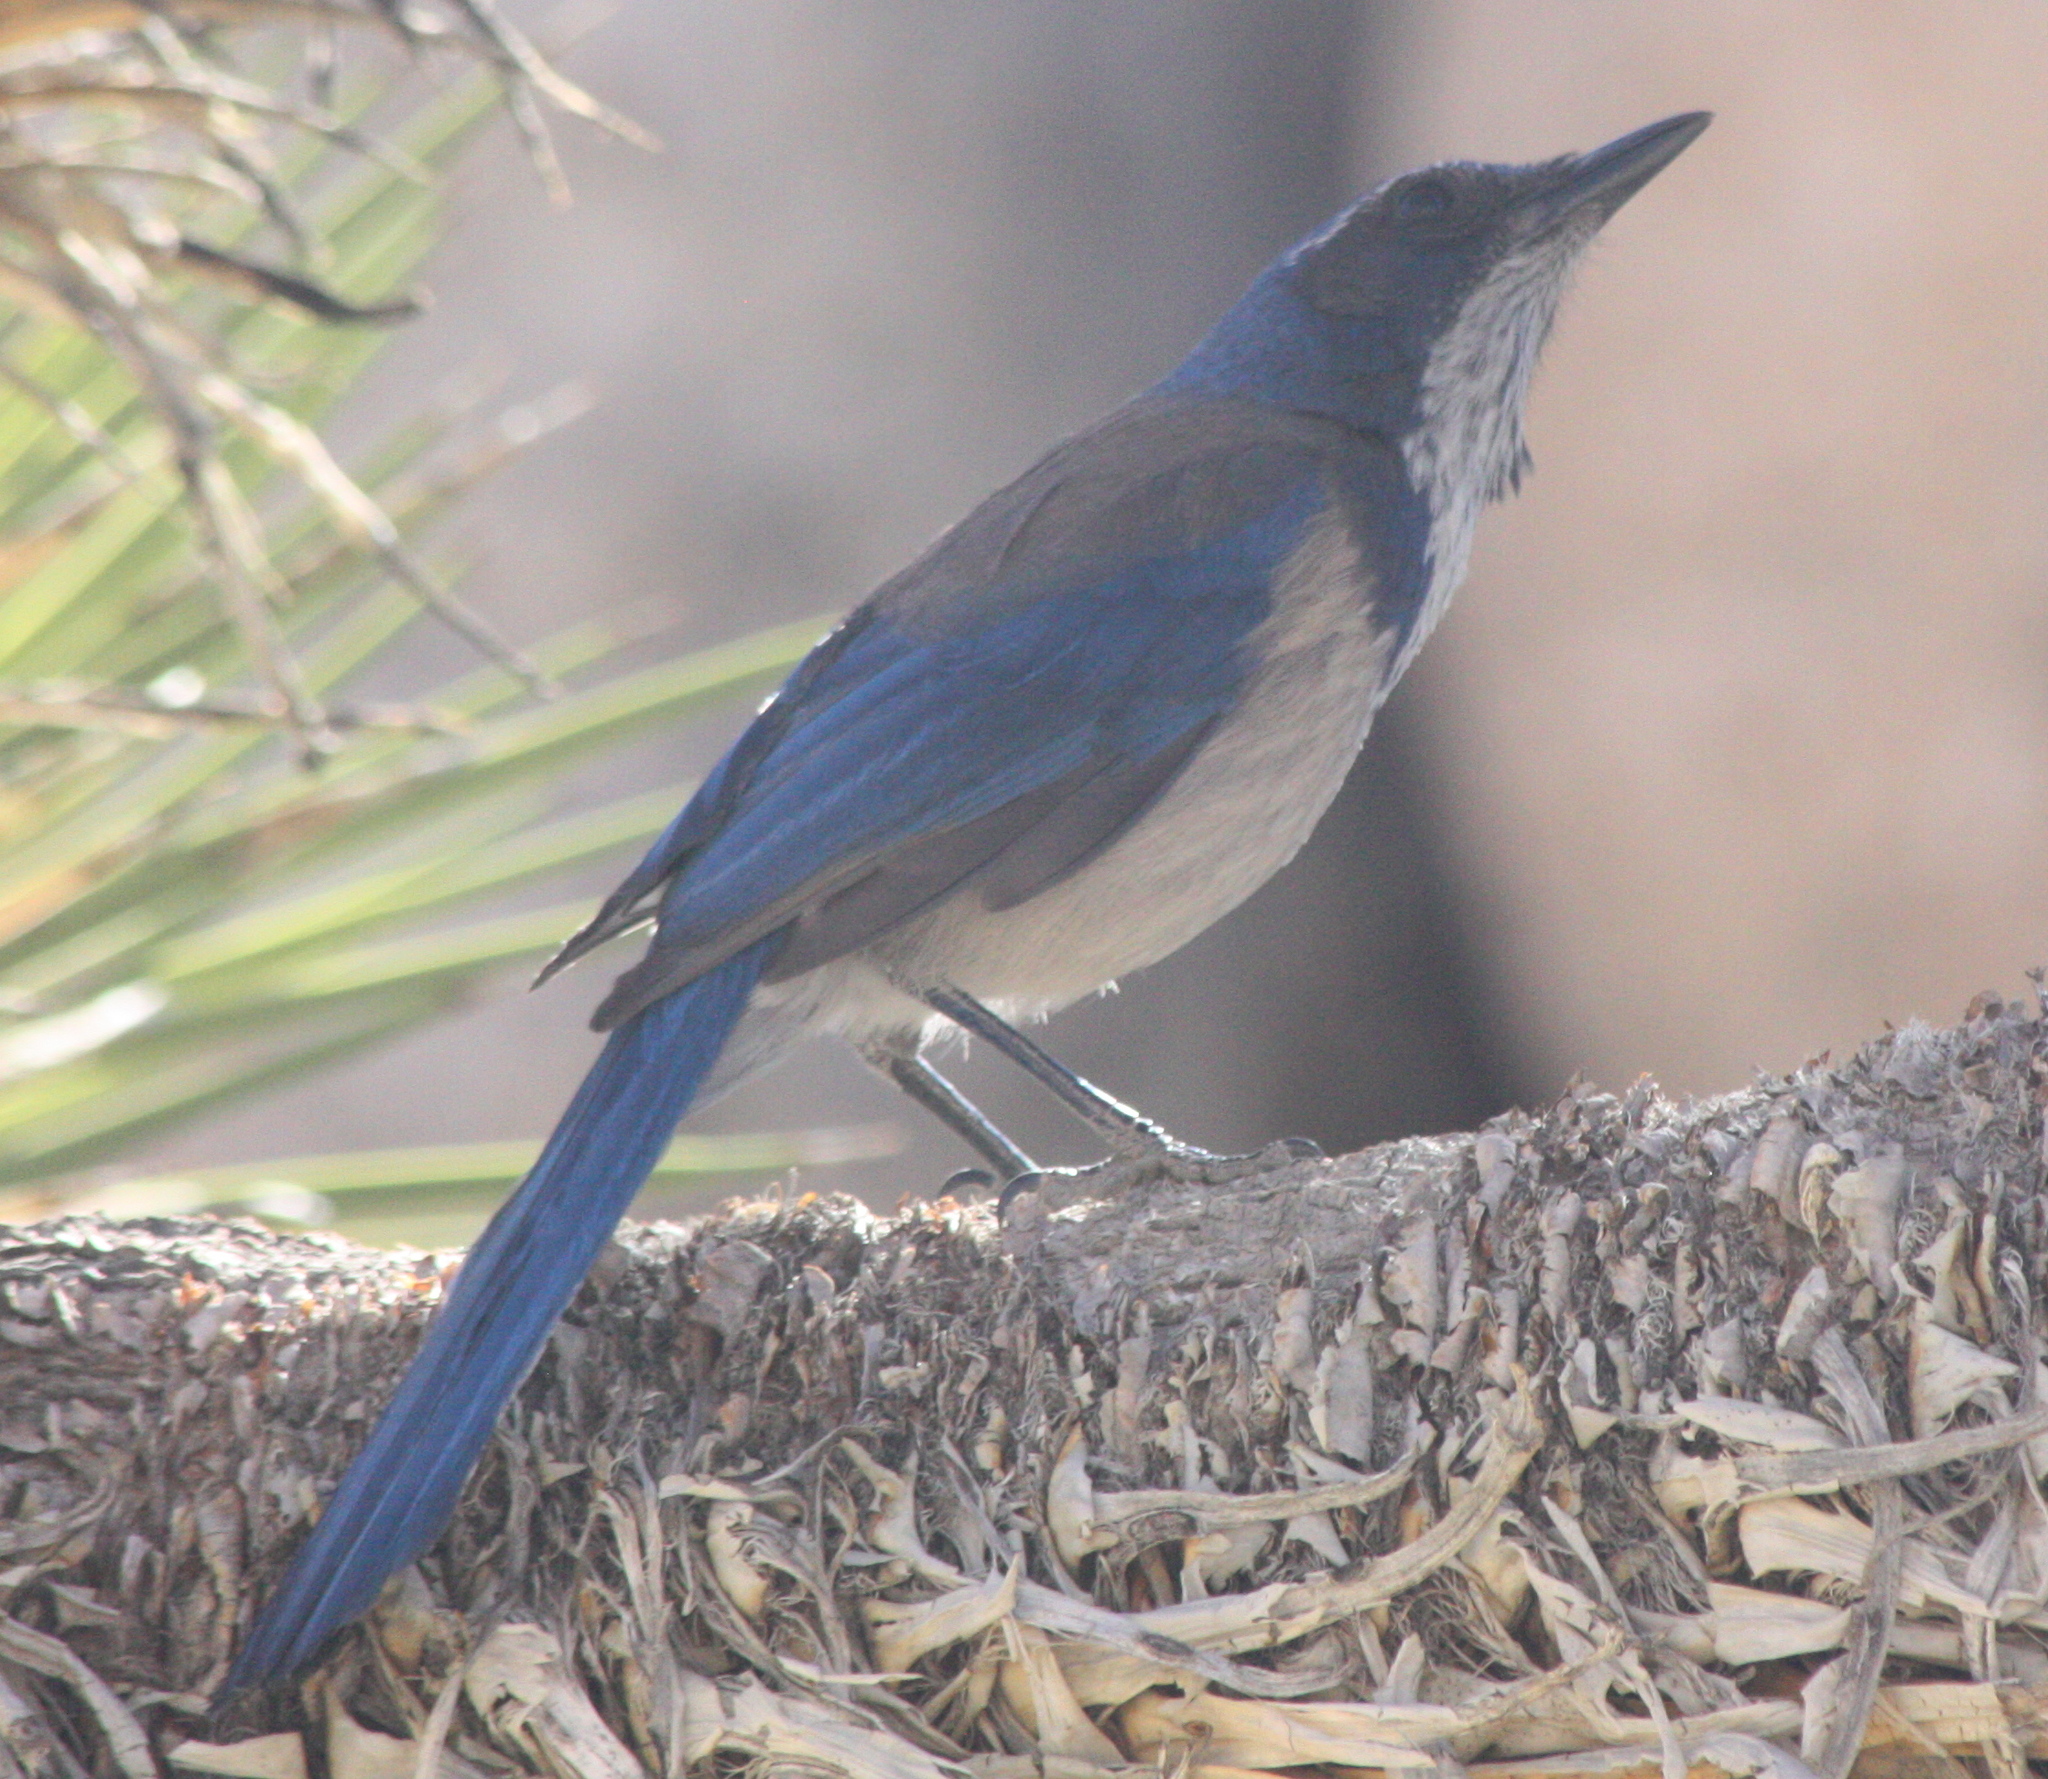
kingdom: Animalia
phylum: Chordata
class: Aves
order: Passeriformes
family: Corvidae
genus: Aphelocoma
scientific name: Aphelocoma californica
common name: California scrub-jay
